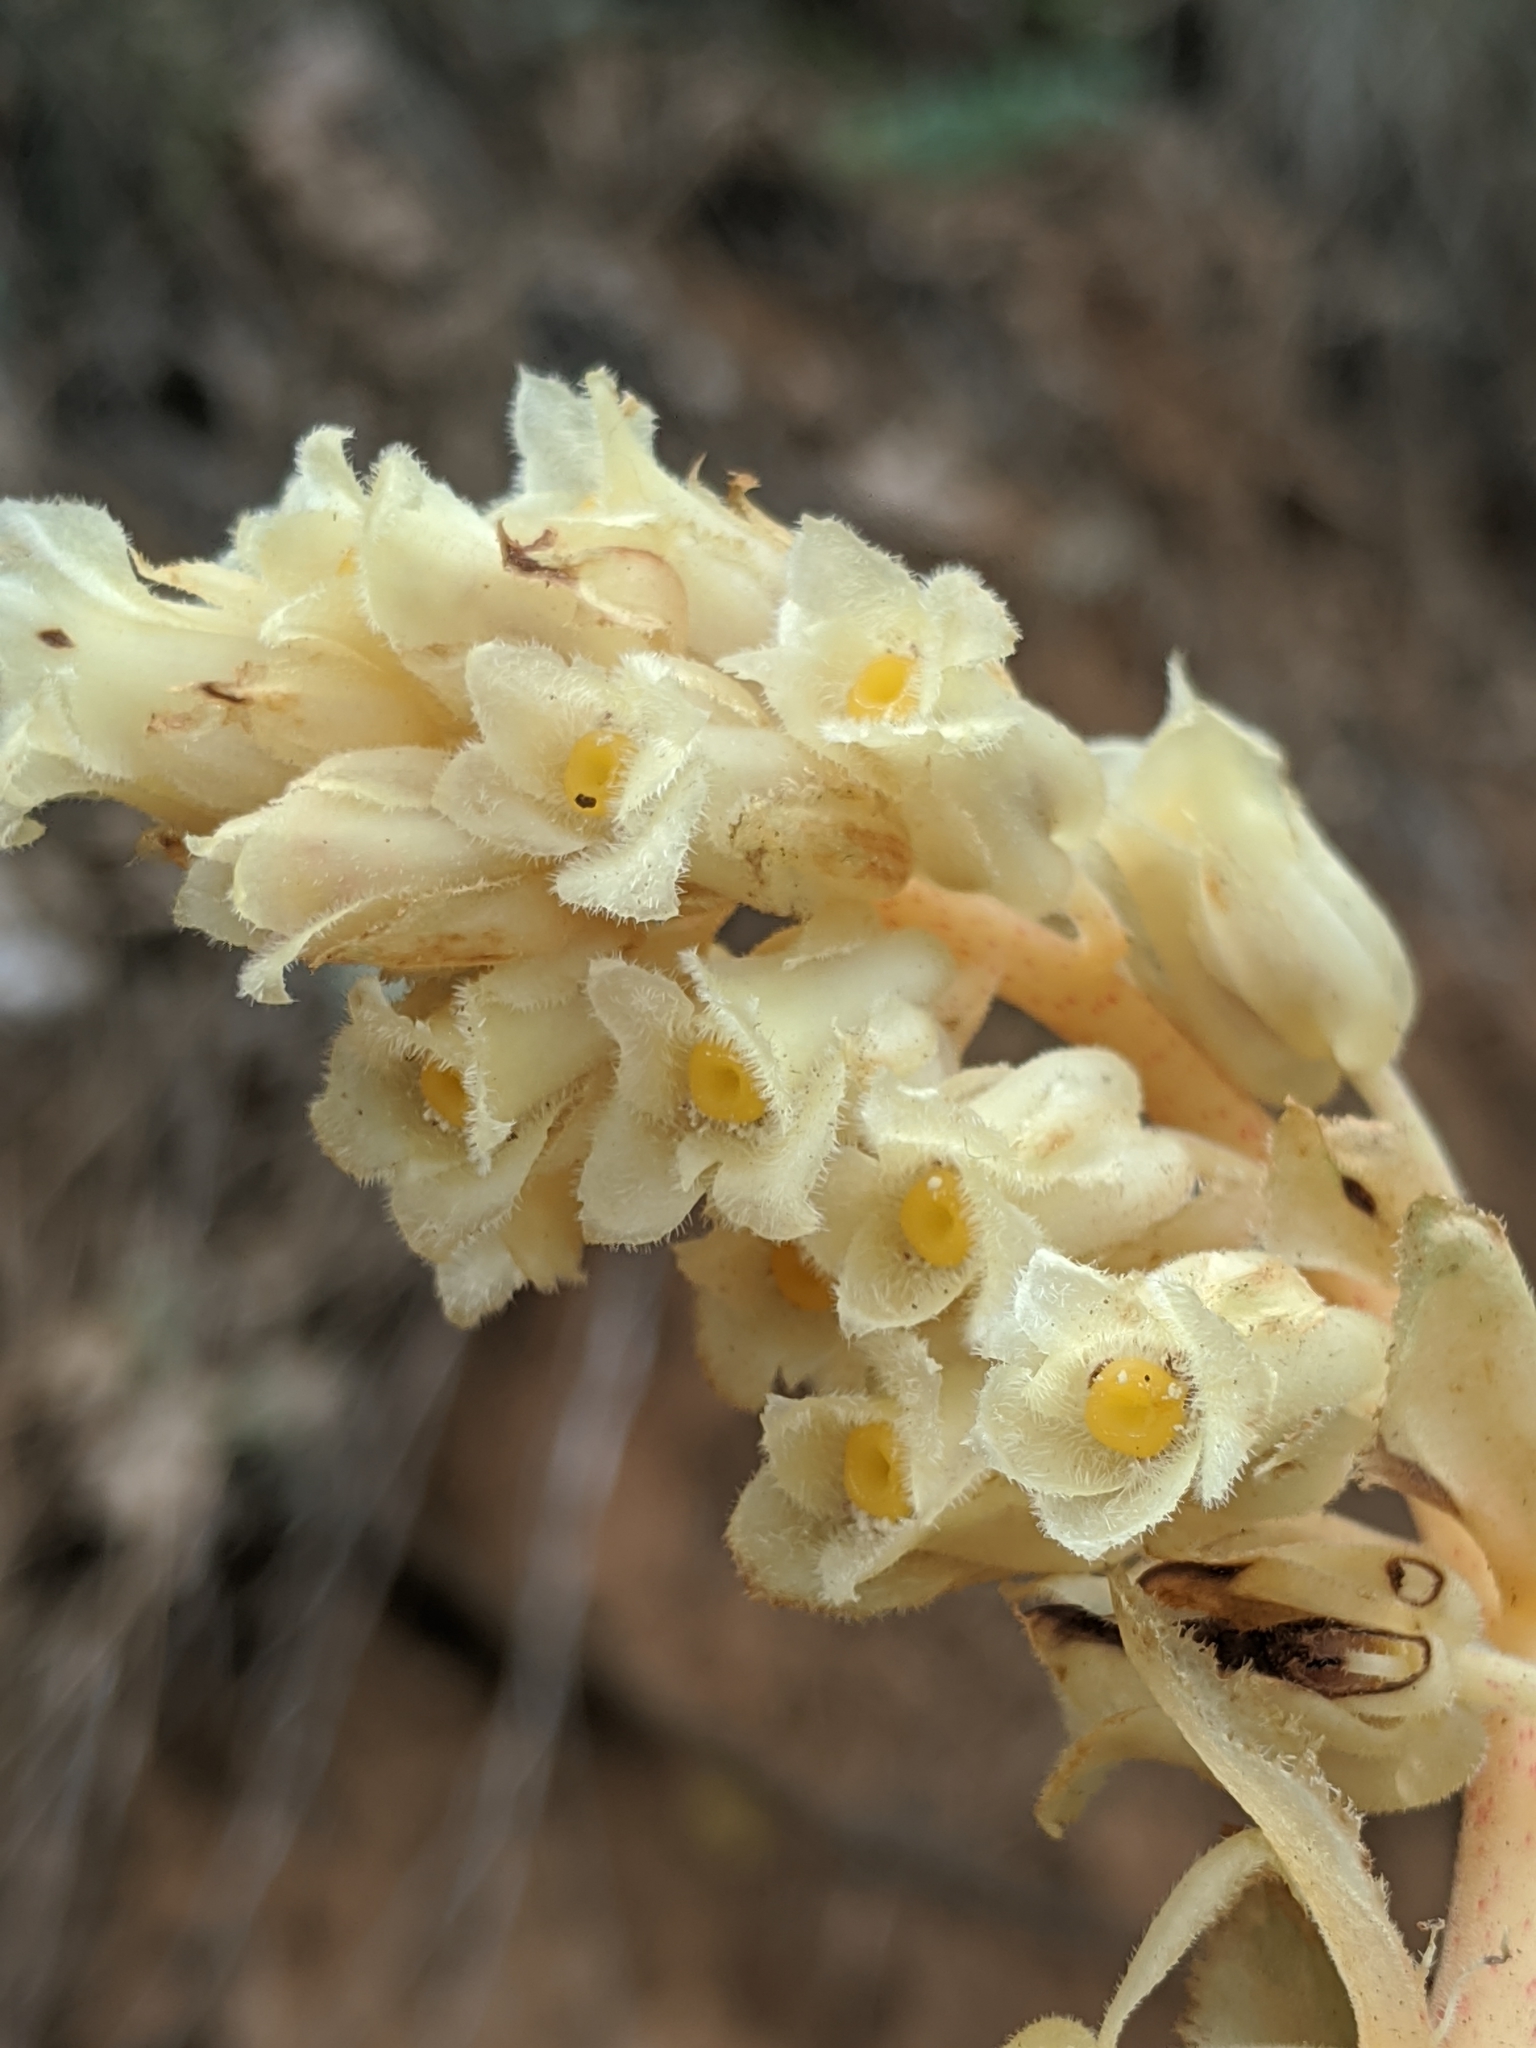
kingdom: Plantae
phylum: Tracheophyta
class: Magnoliopsida
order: Ericales
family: Ericaceae
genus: Hypopitys
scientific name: Hypopitys monotropa
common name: Yellow bird's-nest
